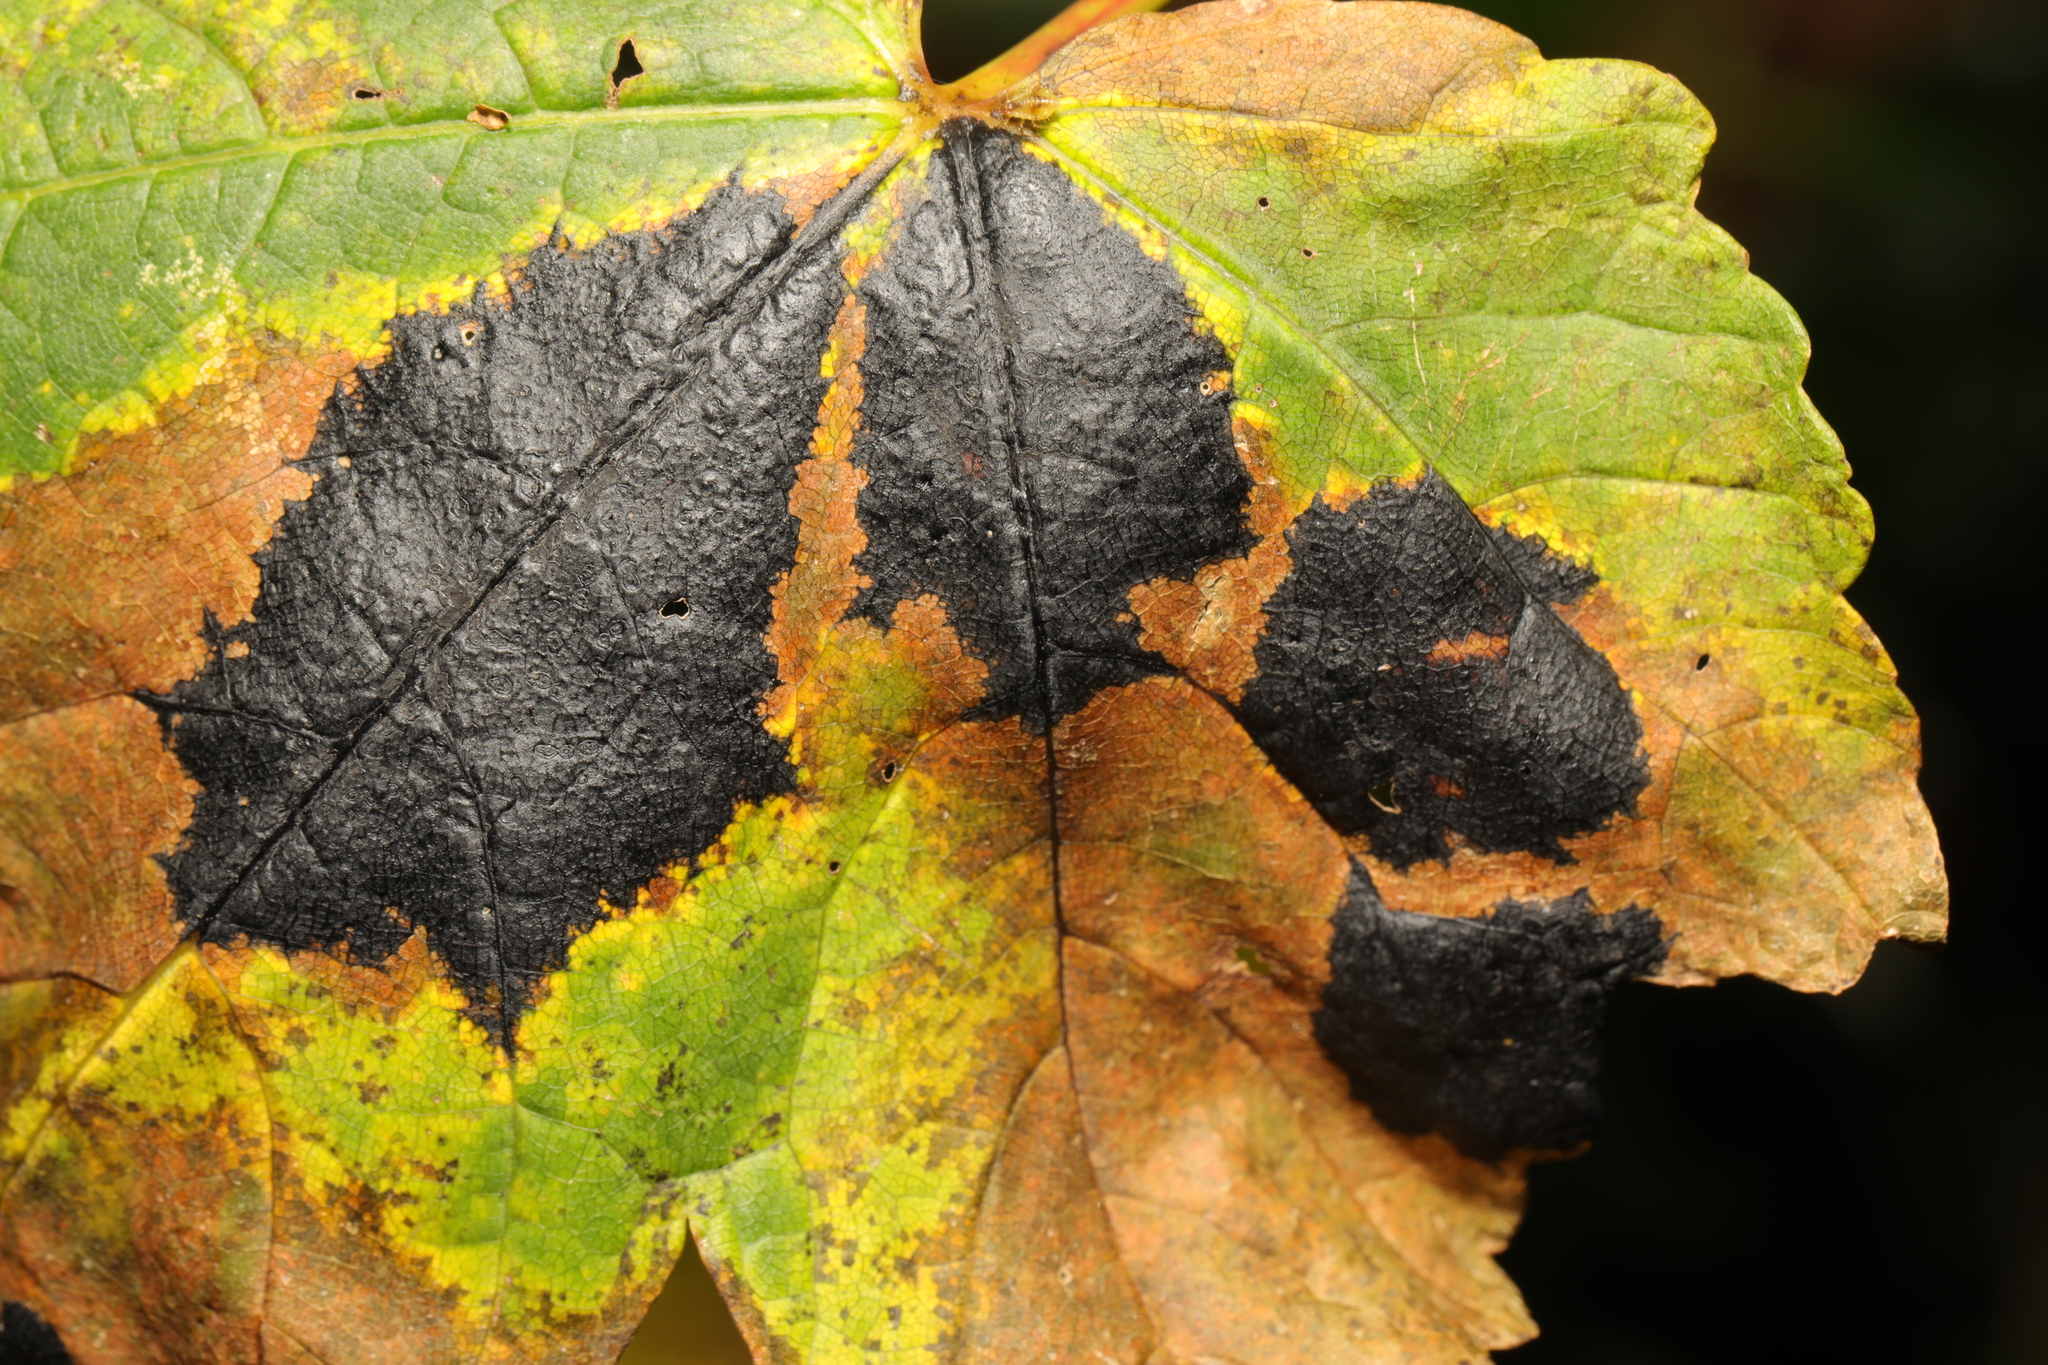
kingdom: Fungi
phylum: Ascomycota
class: Leotiomycetes
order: Rhytismatales
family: Rhytismataceae
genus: Rhytisma
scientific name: Rhytisma acerinum
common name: European tar spot
